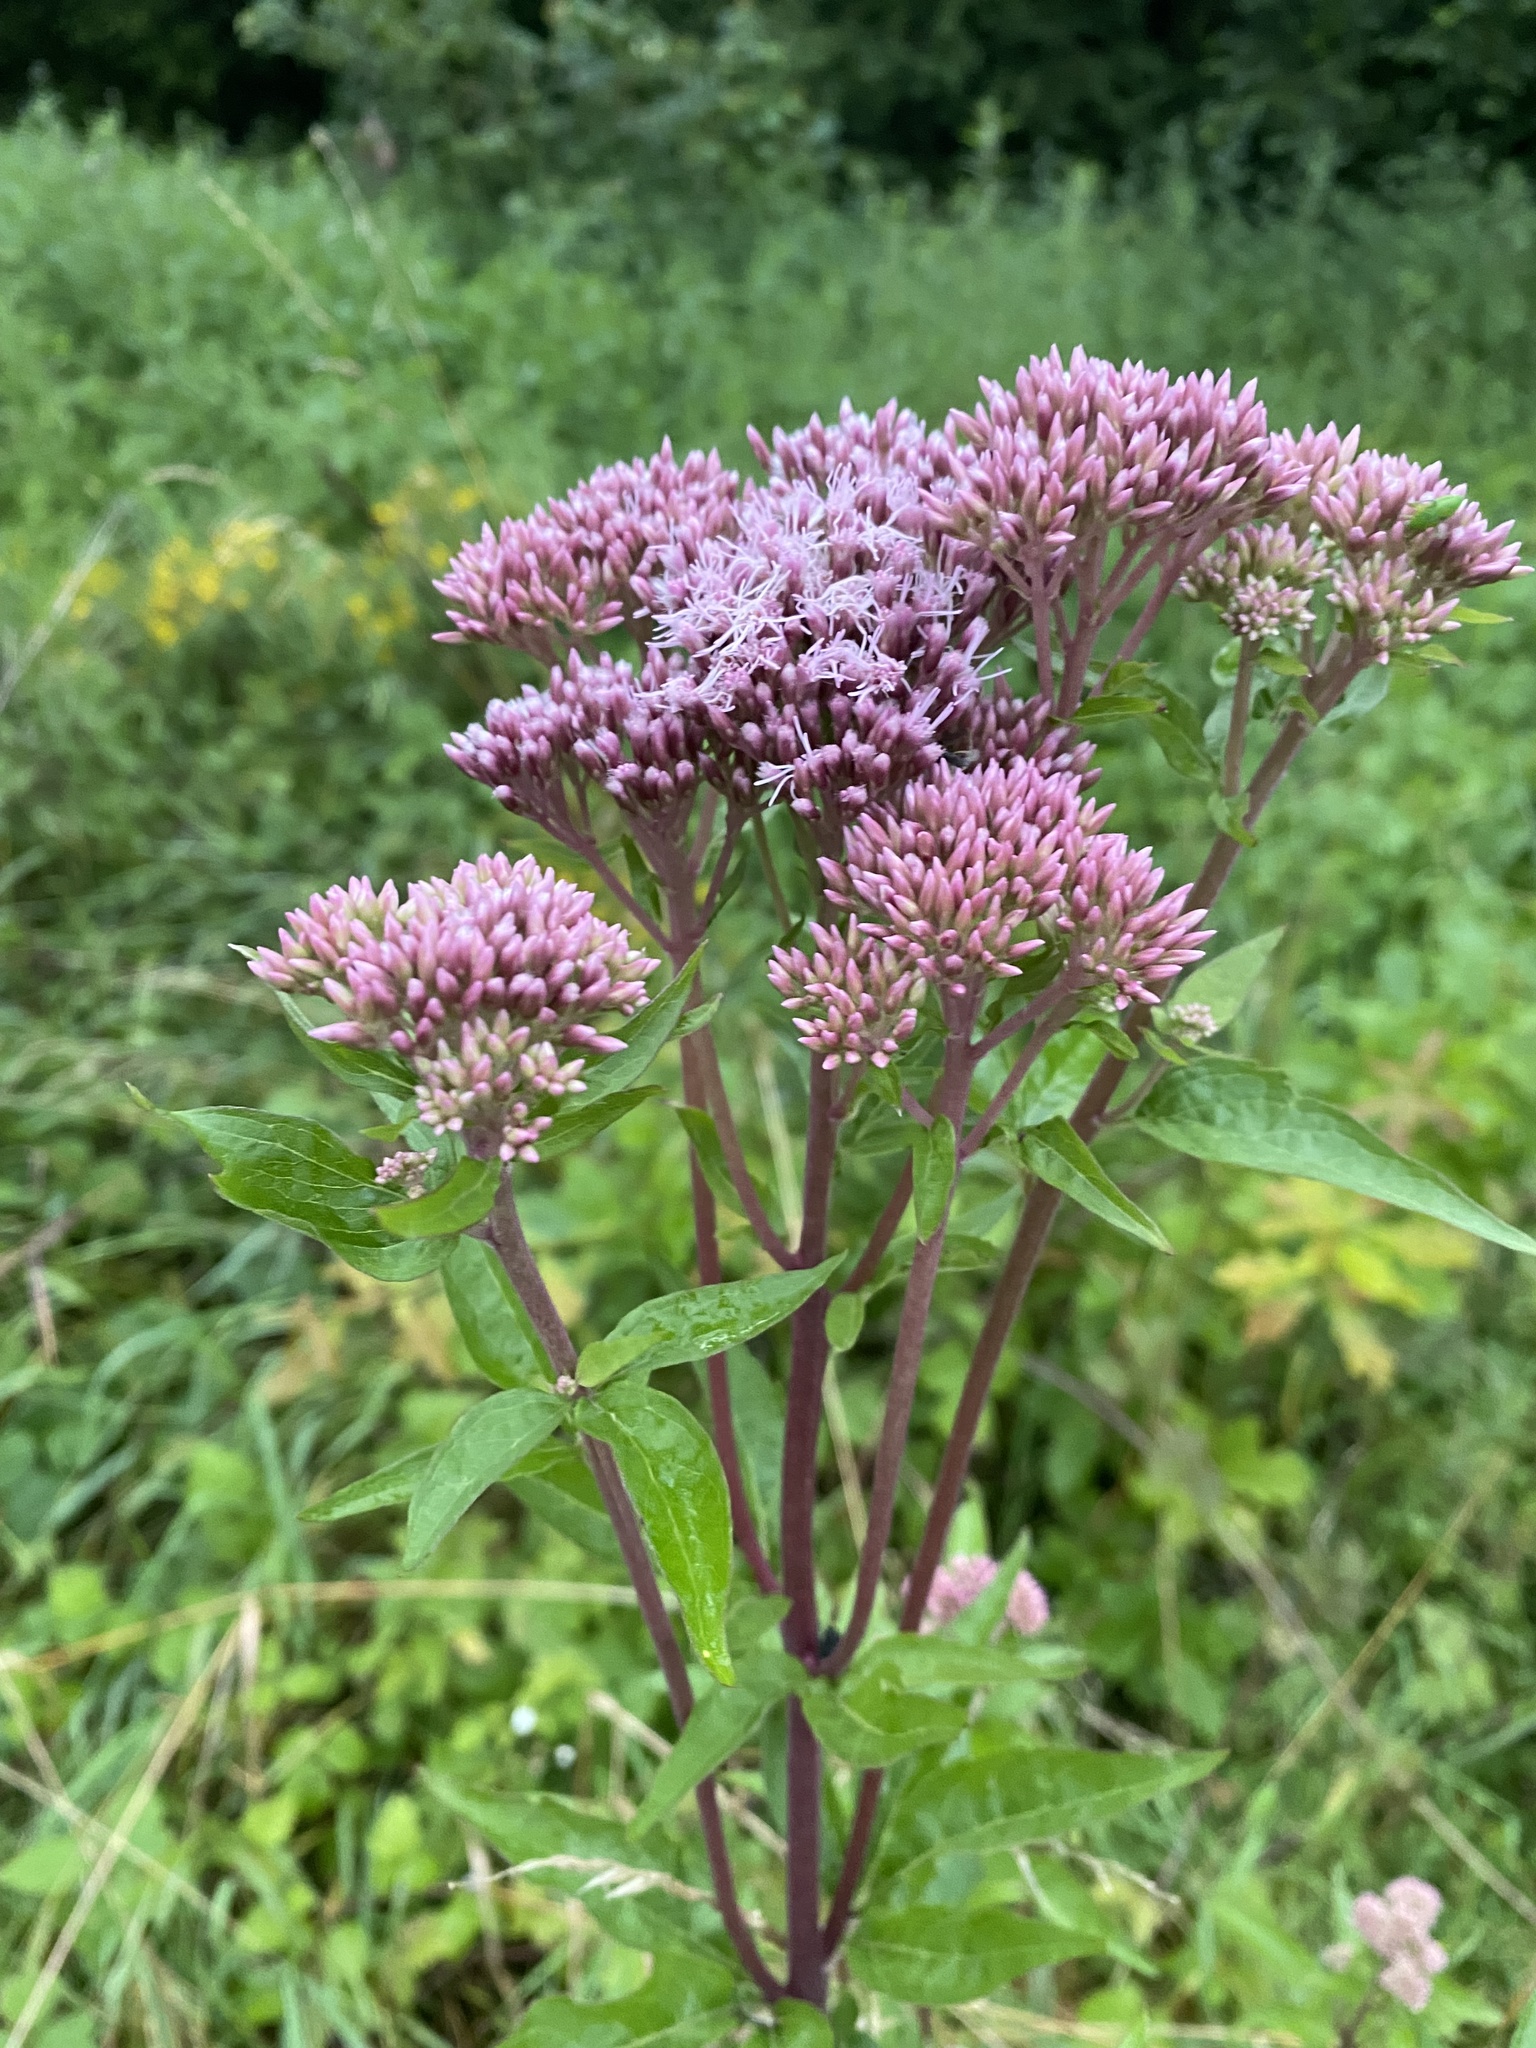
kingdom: Plantae
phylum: Tracheophyta
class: Magnoliopsida
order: Asterales
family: Asteraceae
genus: Eupatorium
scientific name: Eupatorium cannabinum
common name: Hemp-agrimony
